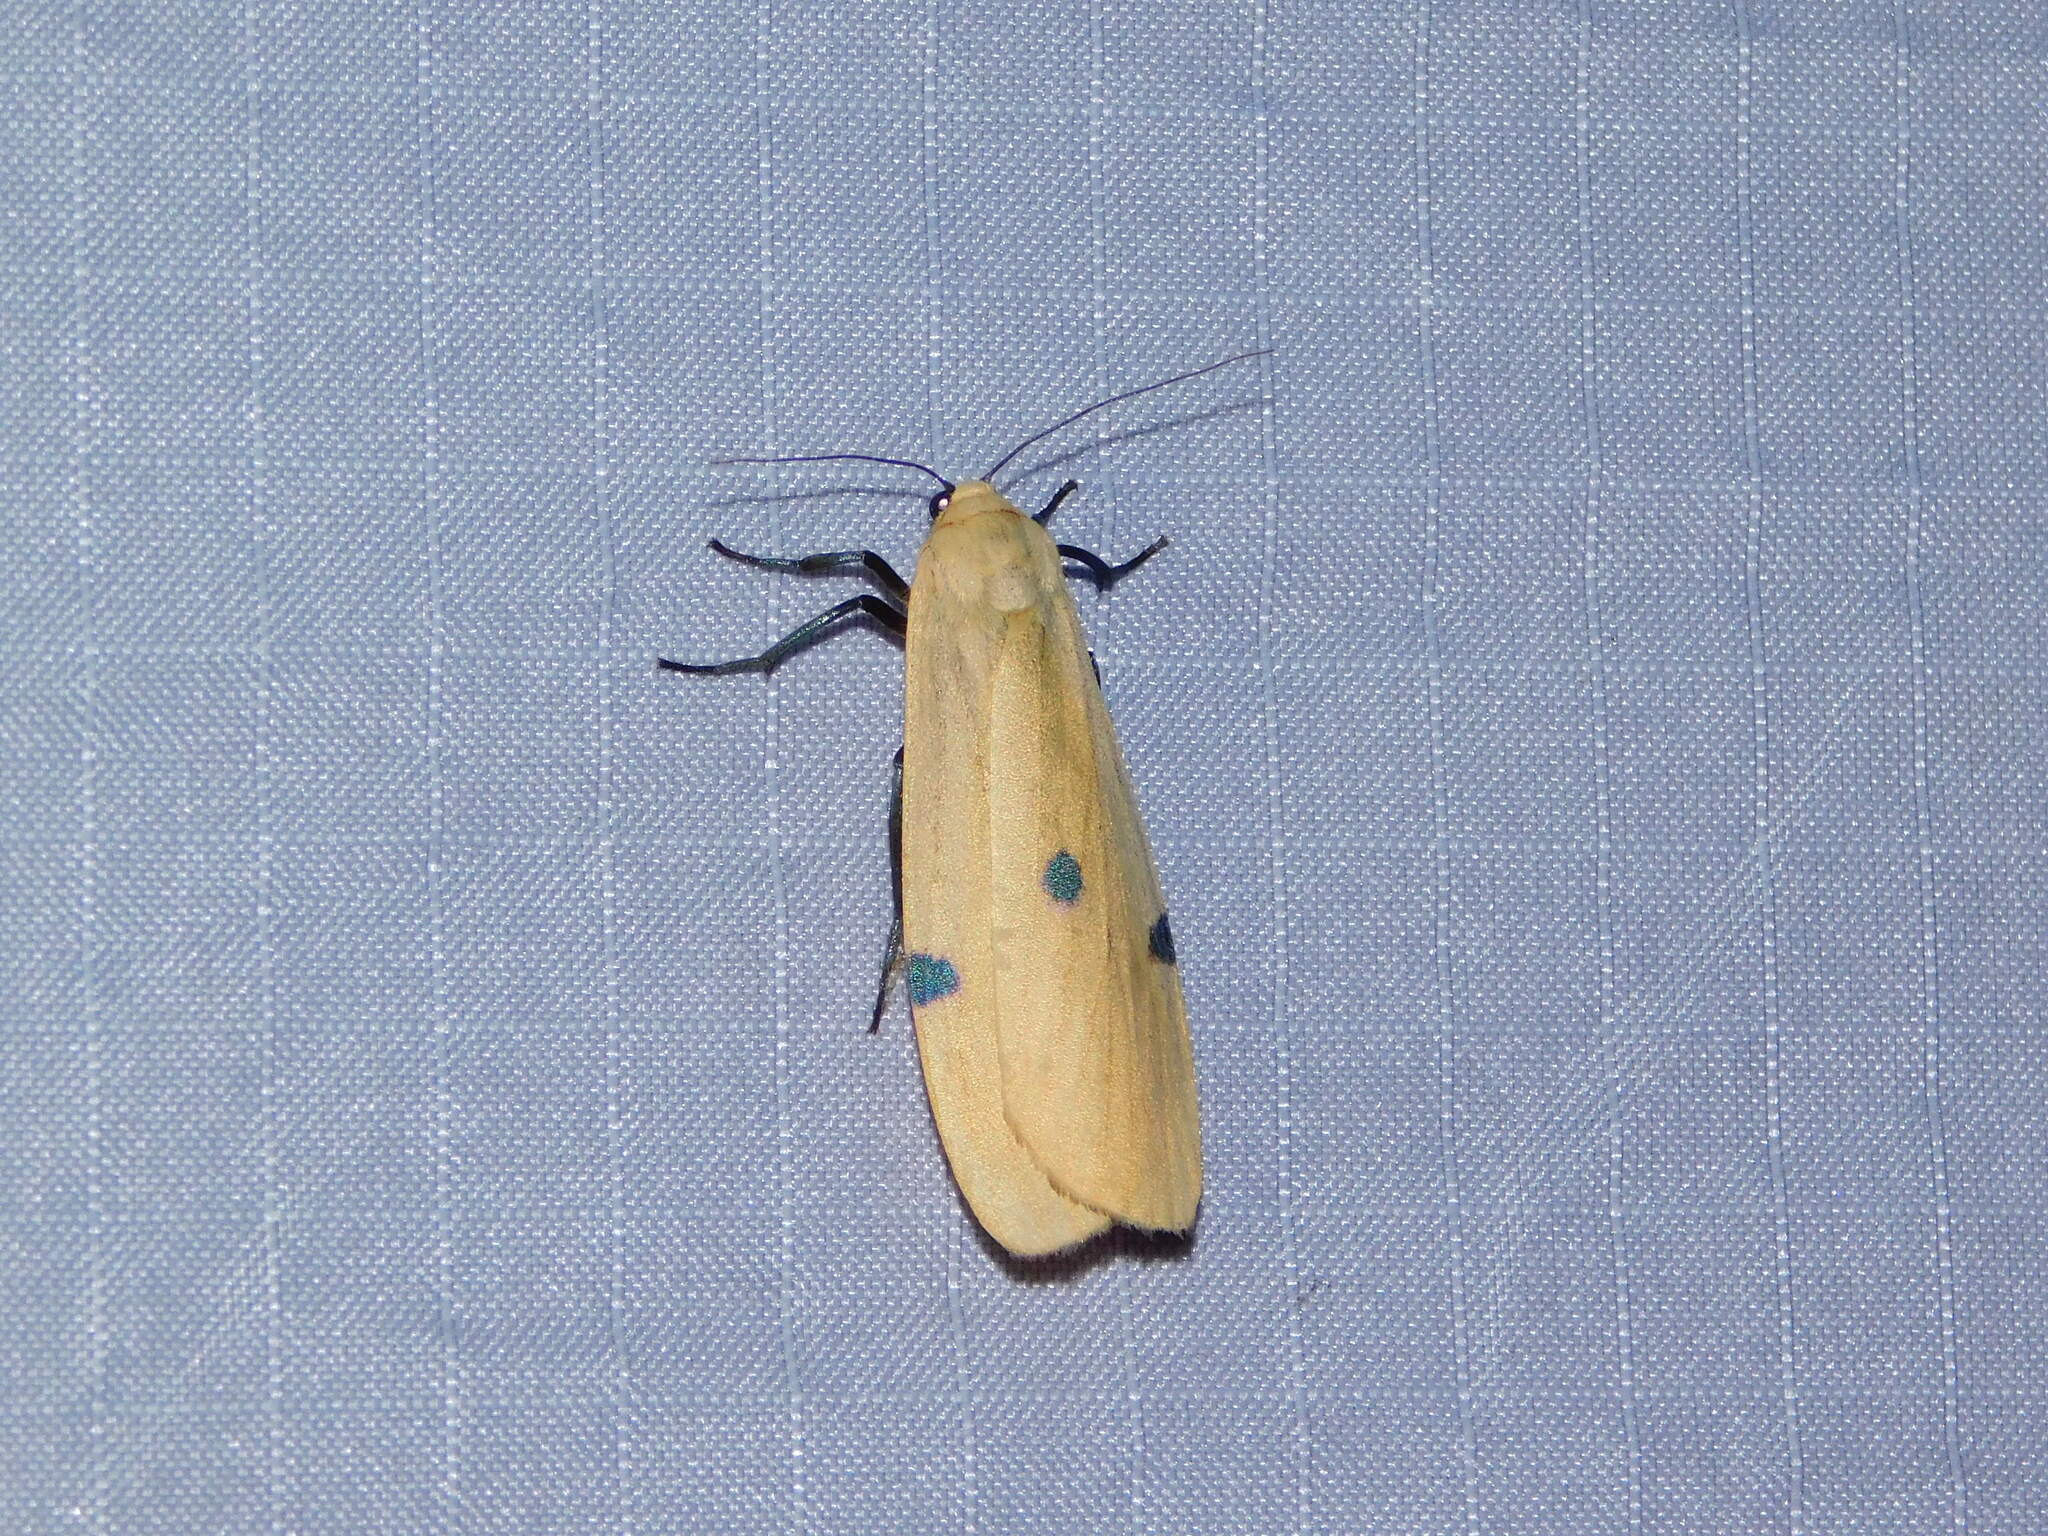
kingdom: Animalia
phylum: Arthropoda
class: Insecta
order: Lepidoptera
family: Erebidae
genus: Lithosia
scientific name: Lithosia quadra
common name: Four-spotted footman
